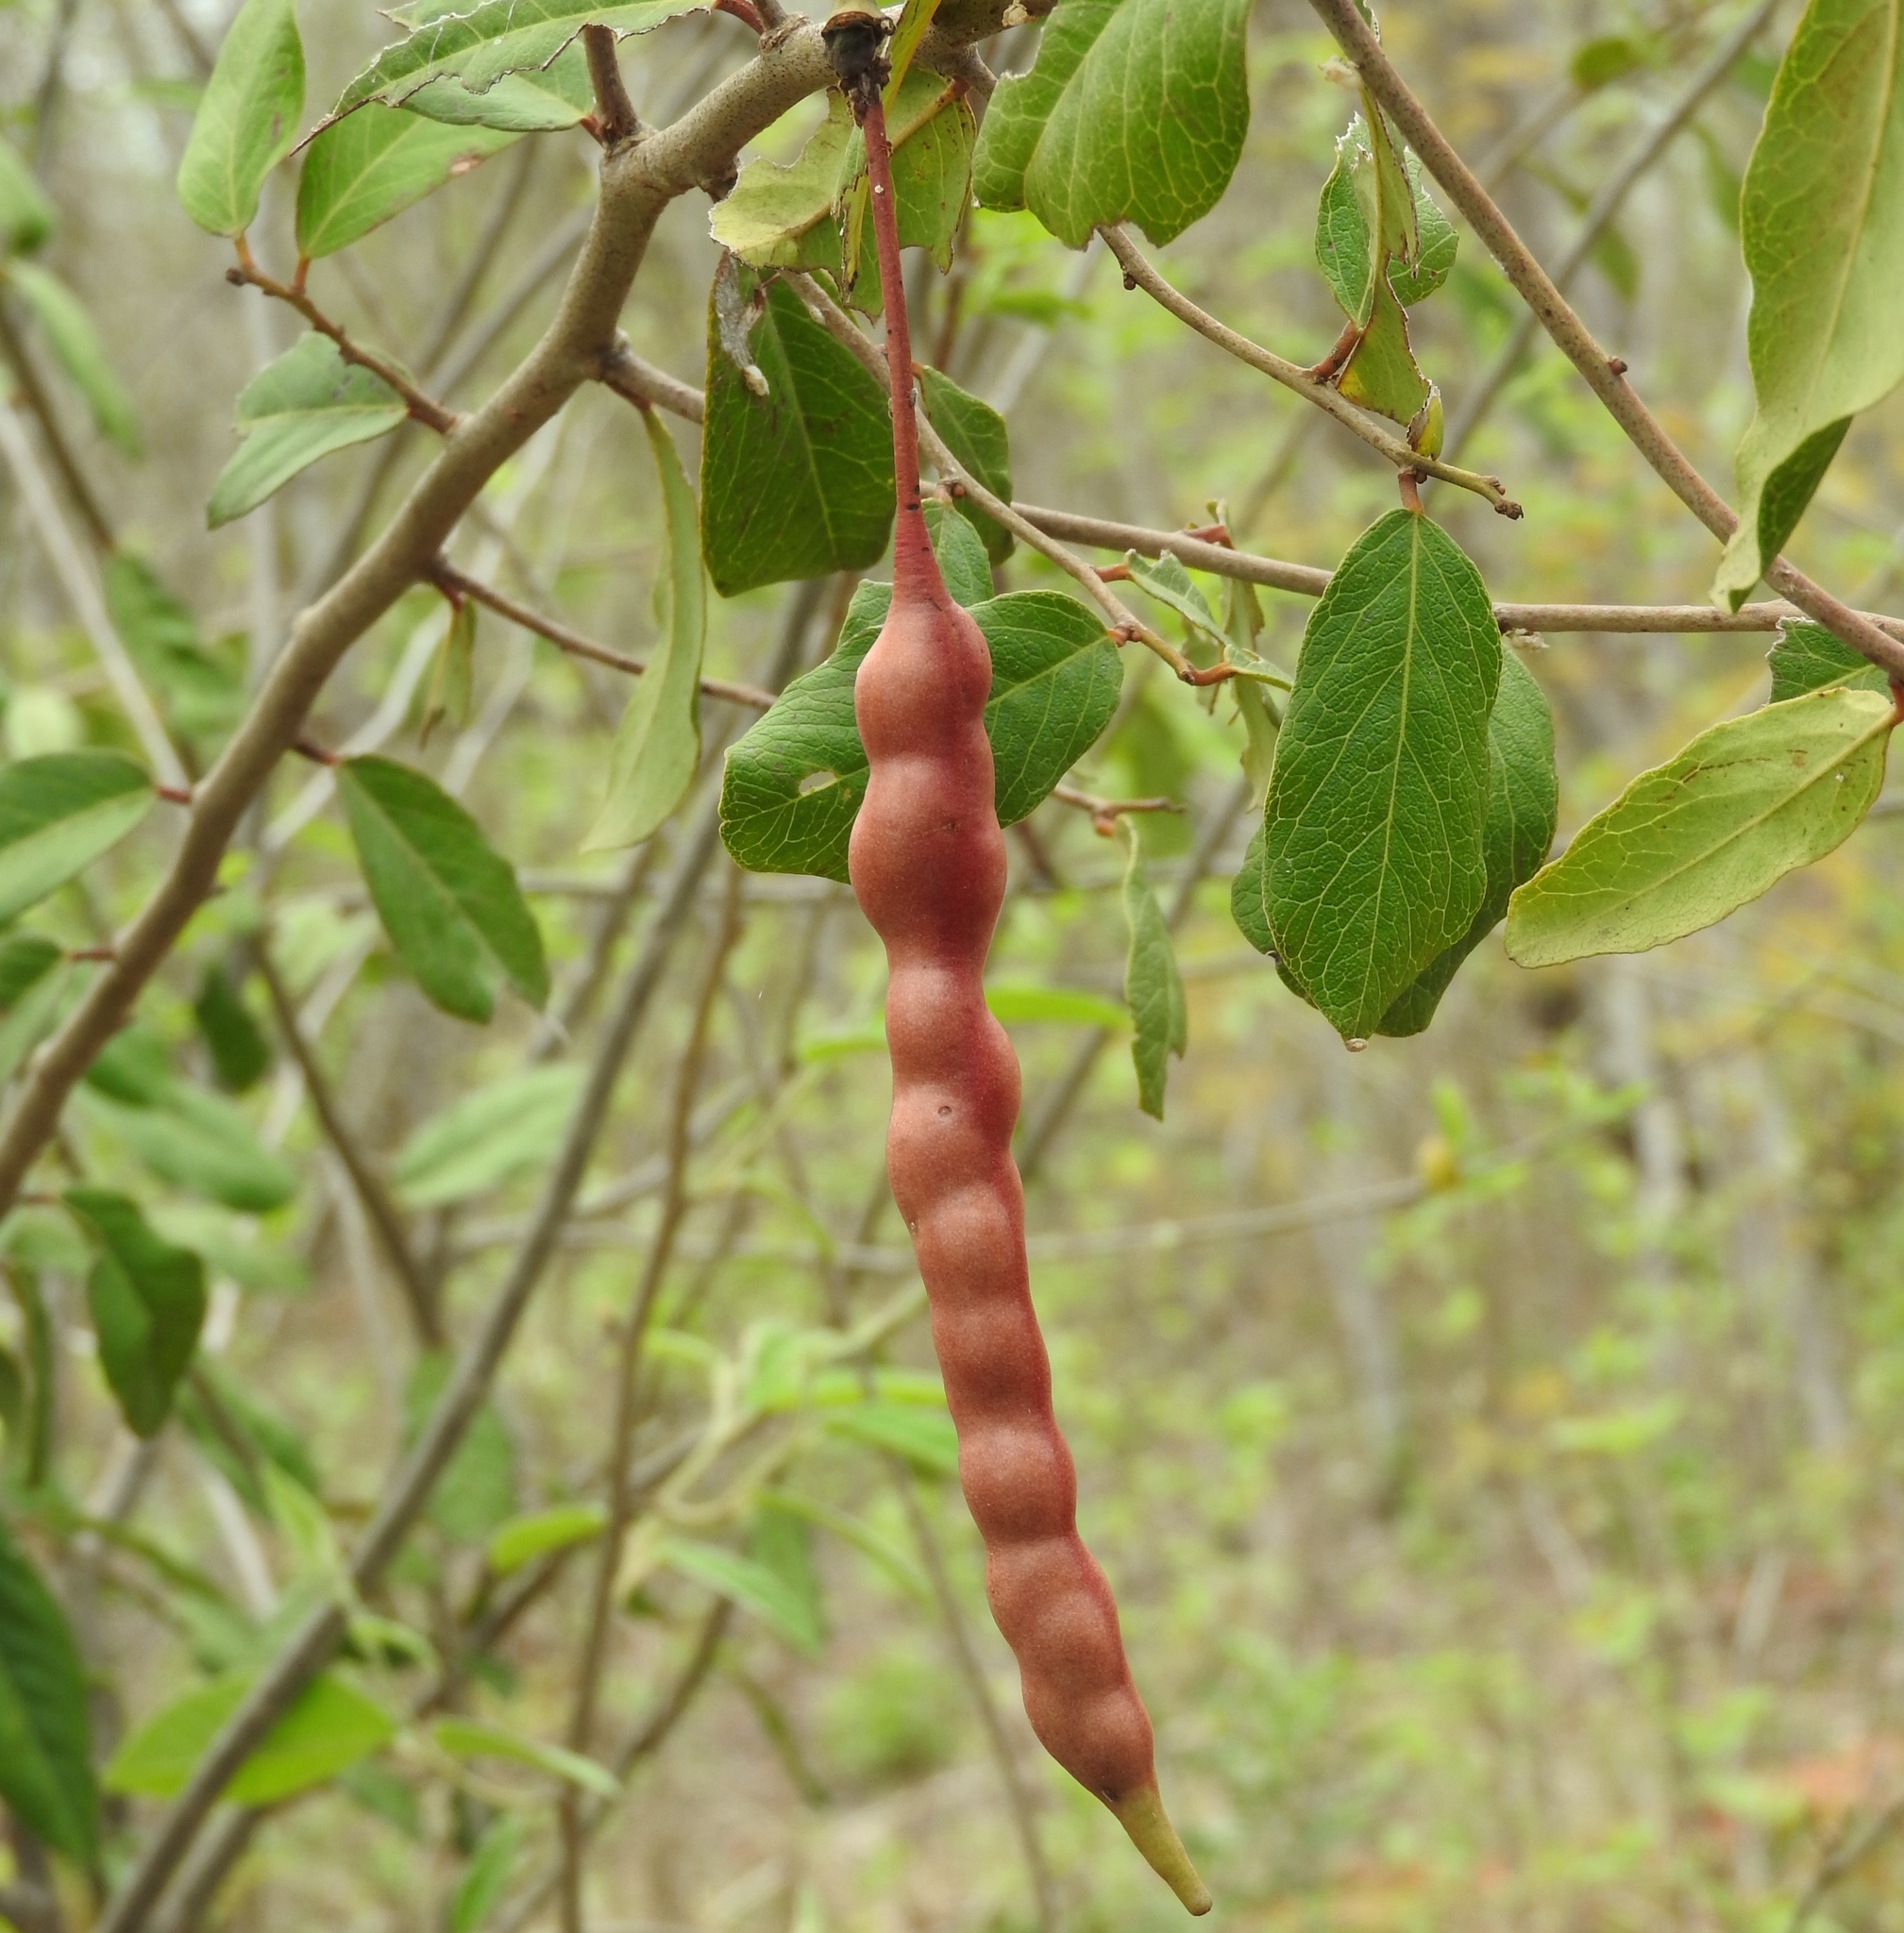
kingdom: Plantae
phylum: Tracheophyta
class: Magnoliopsida
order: Brassicales
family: Capparaceae
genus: Cynophalla
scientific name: Cynophalla flexuosa
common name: Capertree
